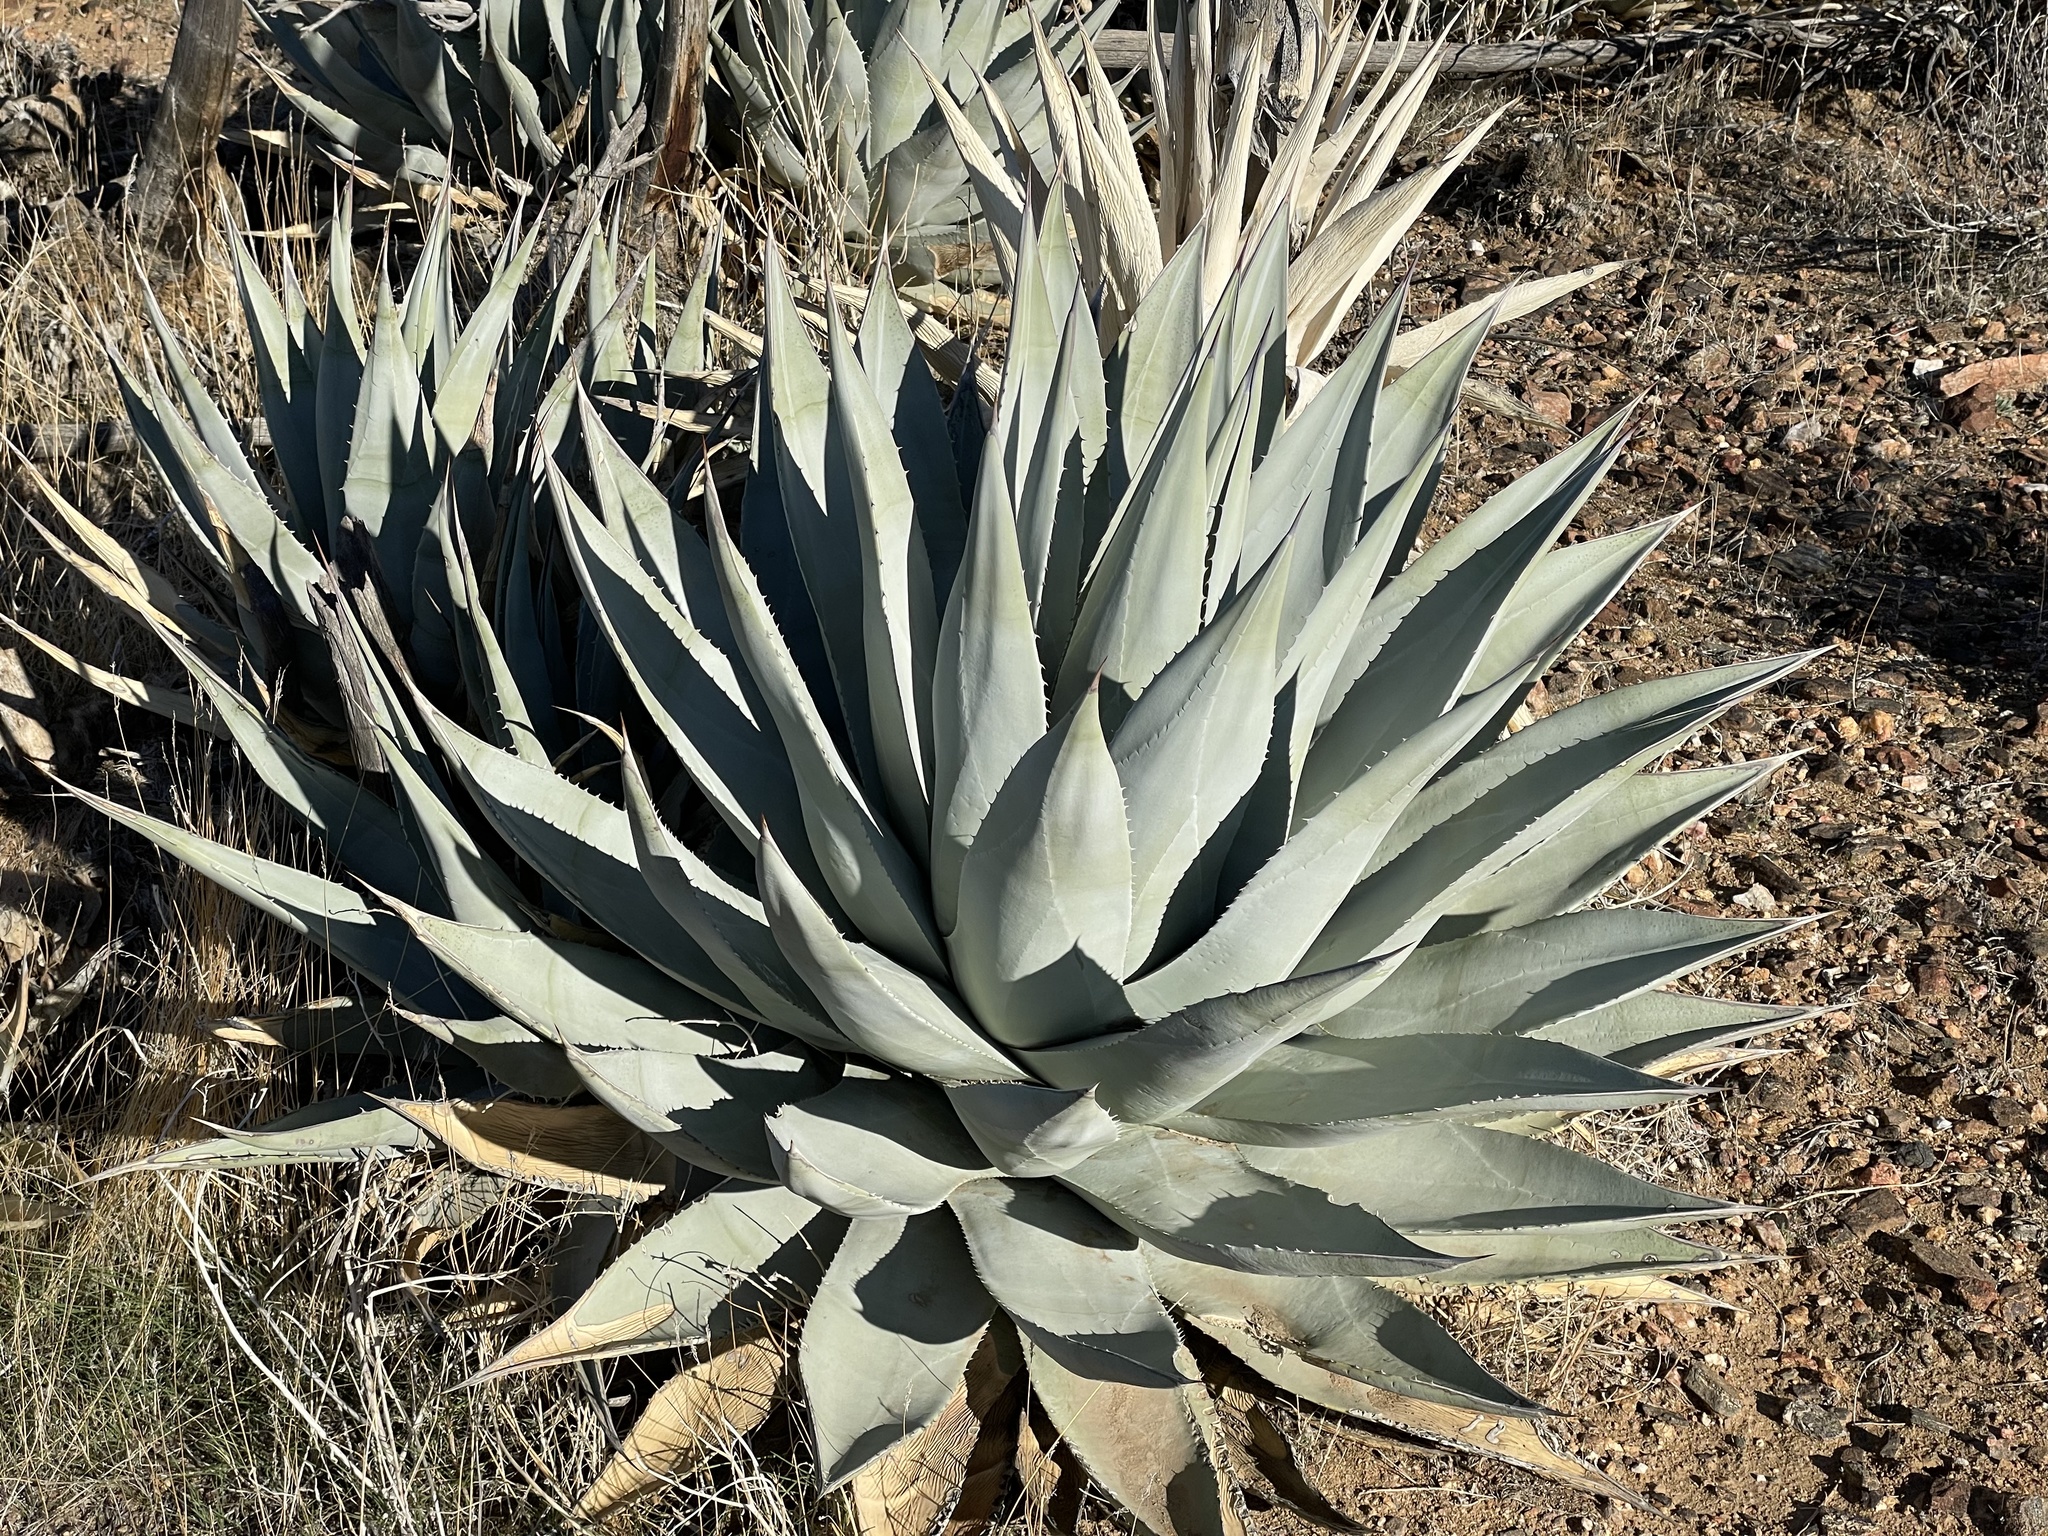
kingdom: Plantae
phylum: Tracheophyta
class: Liliopsida
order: Asparagales
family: Asparagaceae
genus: Agave
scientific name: Agave deserti
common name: Desert agave
